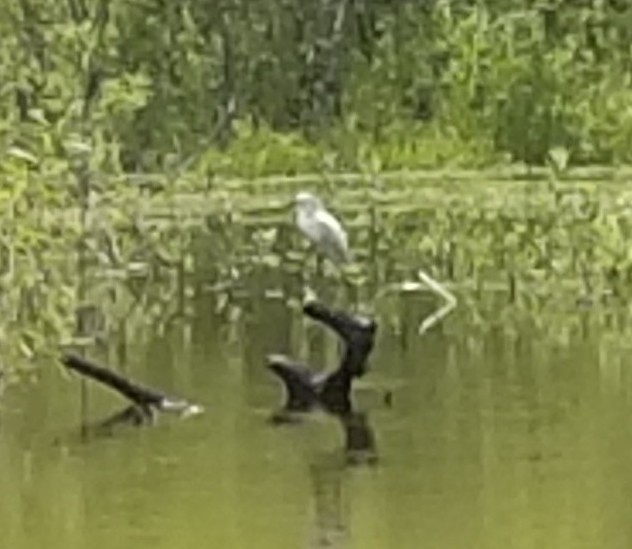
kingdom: Animalia
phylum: Chordata
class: Aves
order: Pelecaniformes
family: Ardeidae
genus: Egretta
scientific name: Egretta thula
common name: Snowy egret
